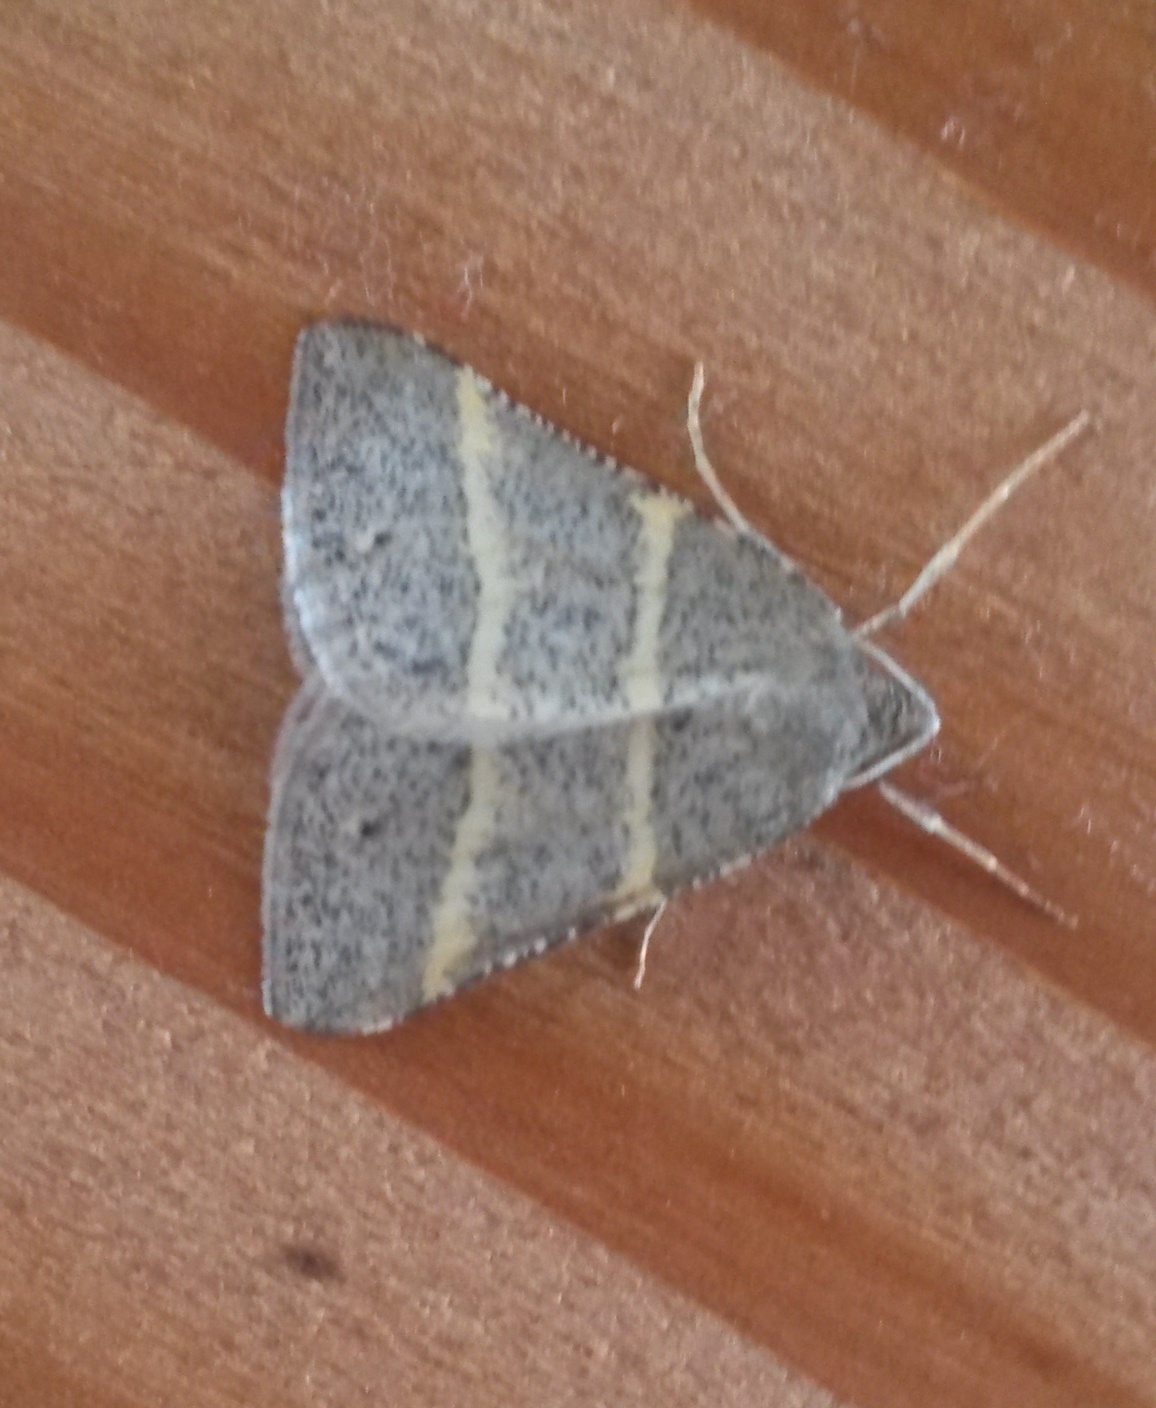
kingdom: Animalia
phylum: Arthropoda
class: Insecta
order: Lepidoptera
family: Pterophoridae
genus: Pterophorus
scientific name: Pterophorus Petrophora narbonea
